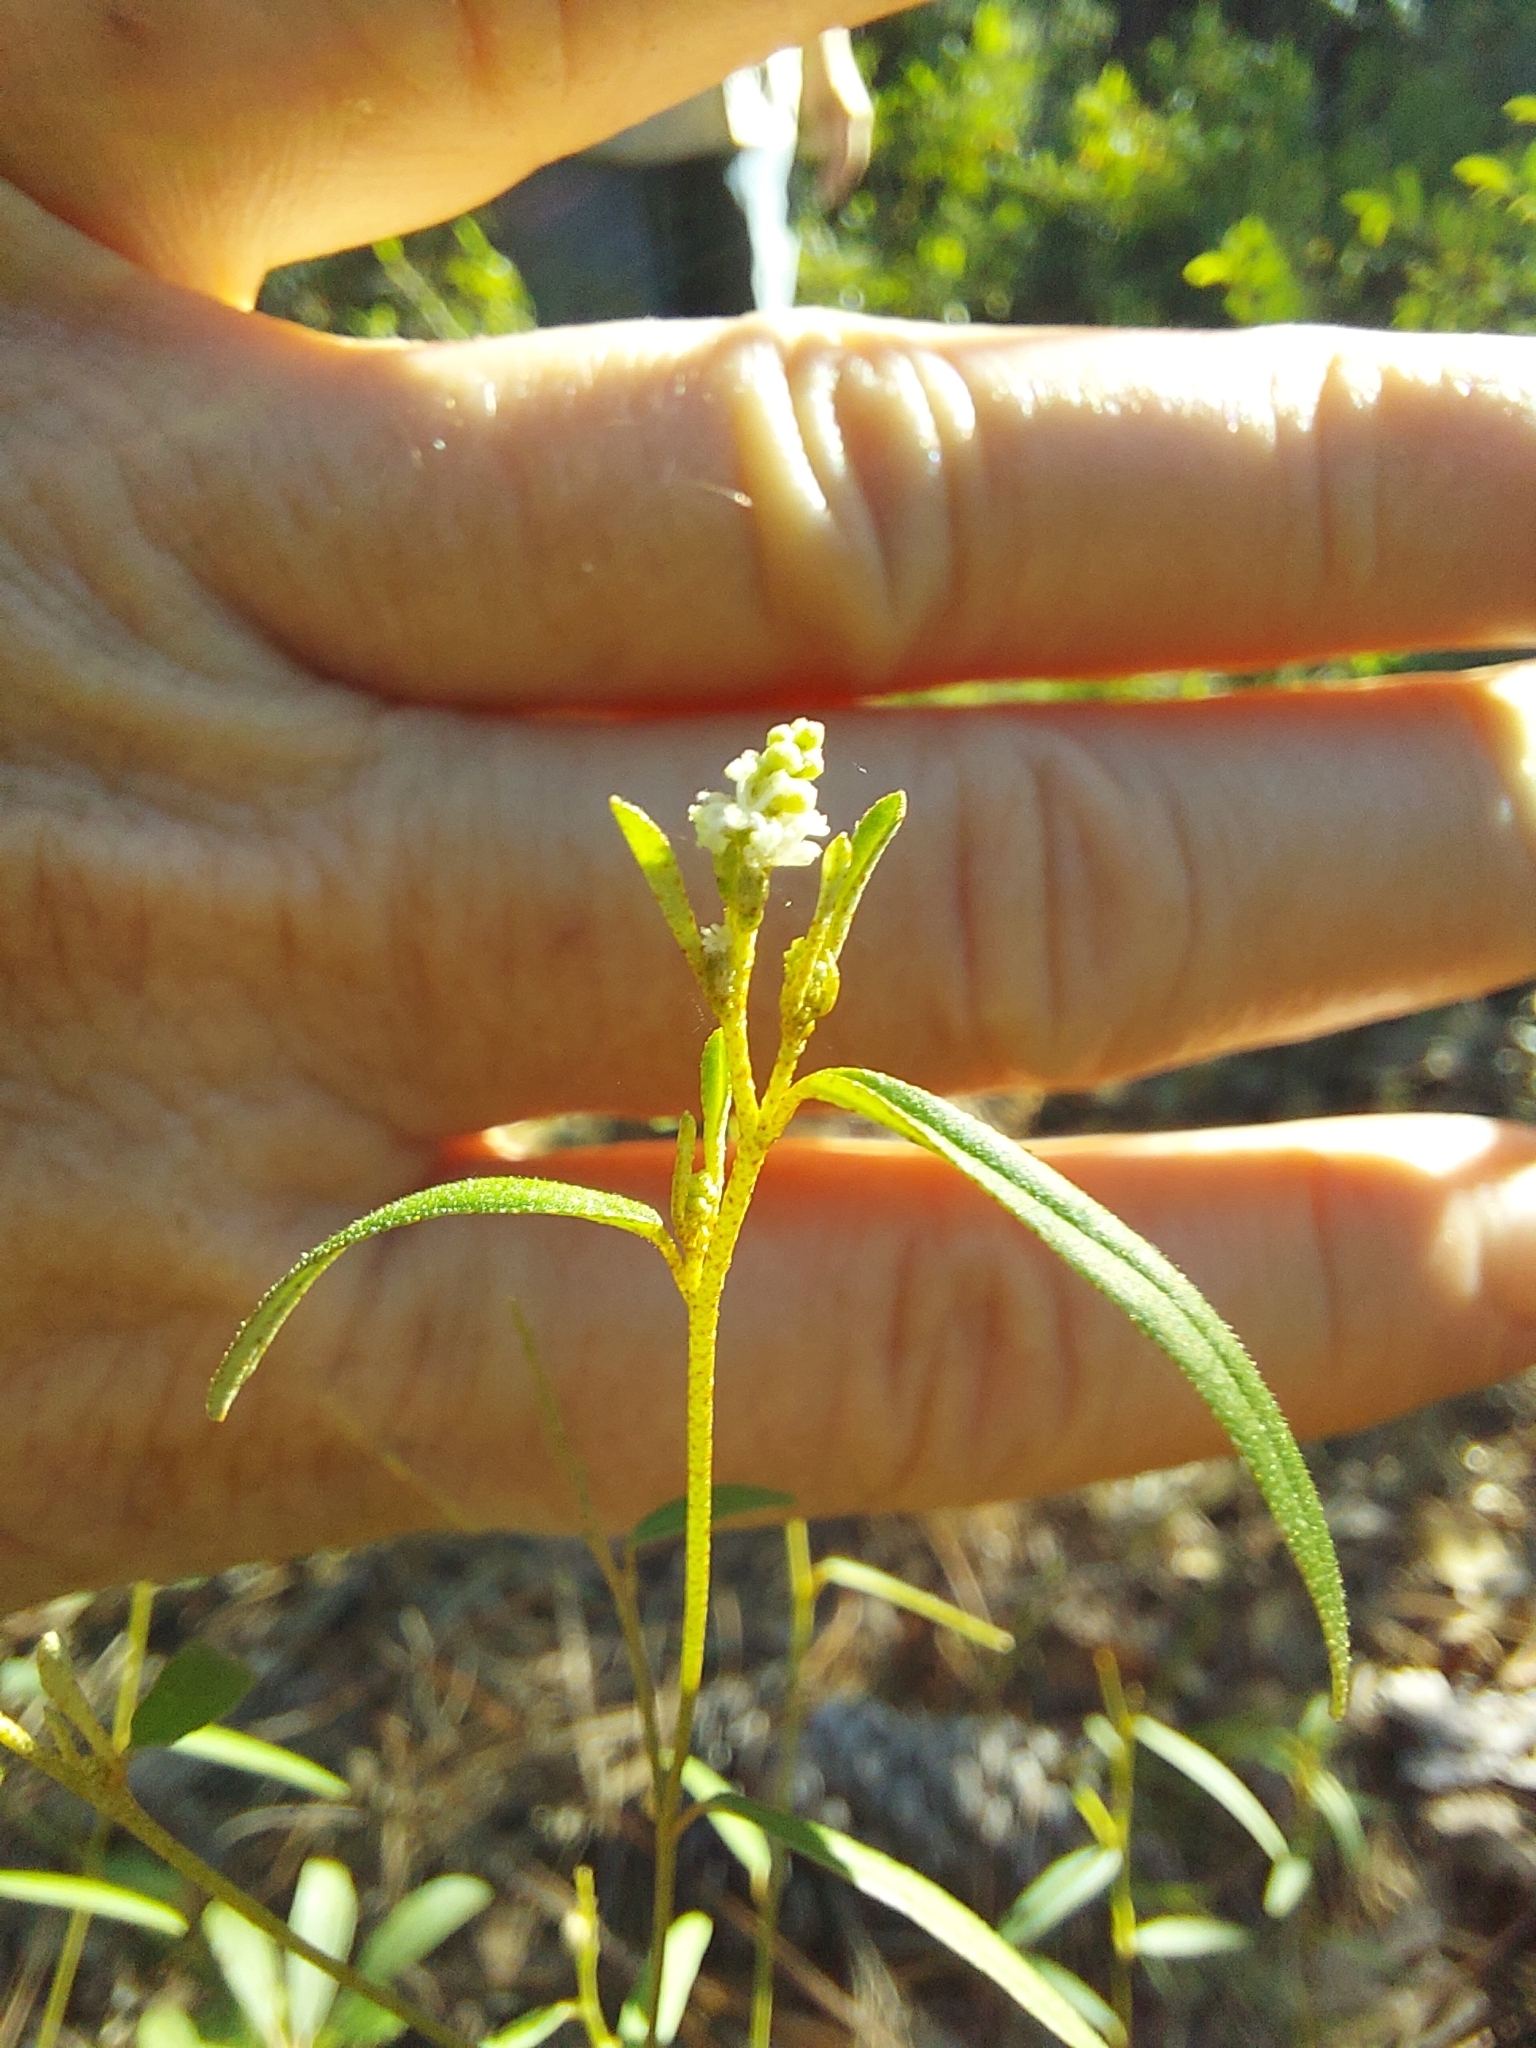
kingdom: Plantae
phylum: Tracheophyta
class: Magnoliopsida
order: Malpighiales
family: Euphorbiaceae
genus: Croton
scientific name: Croton michauxii
